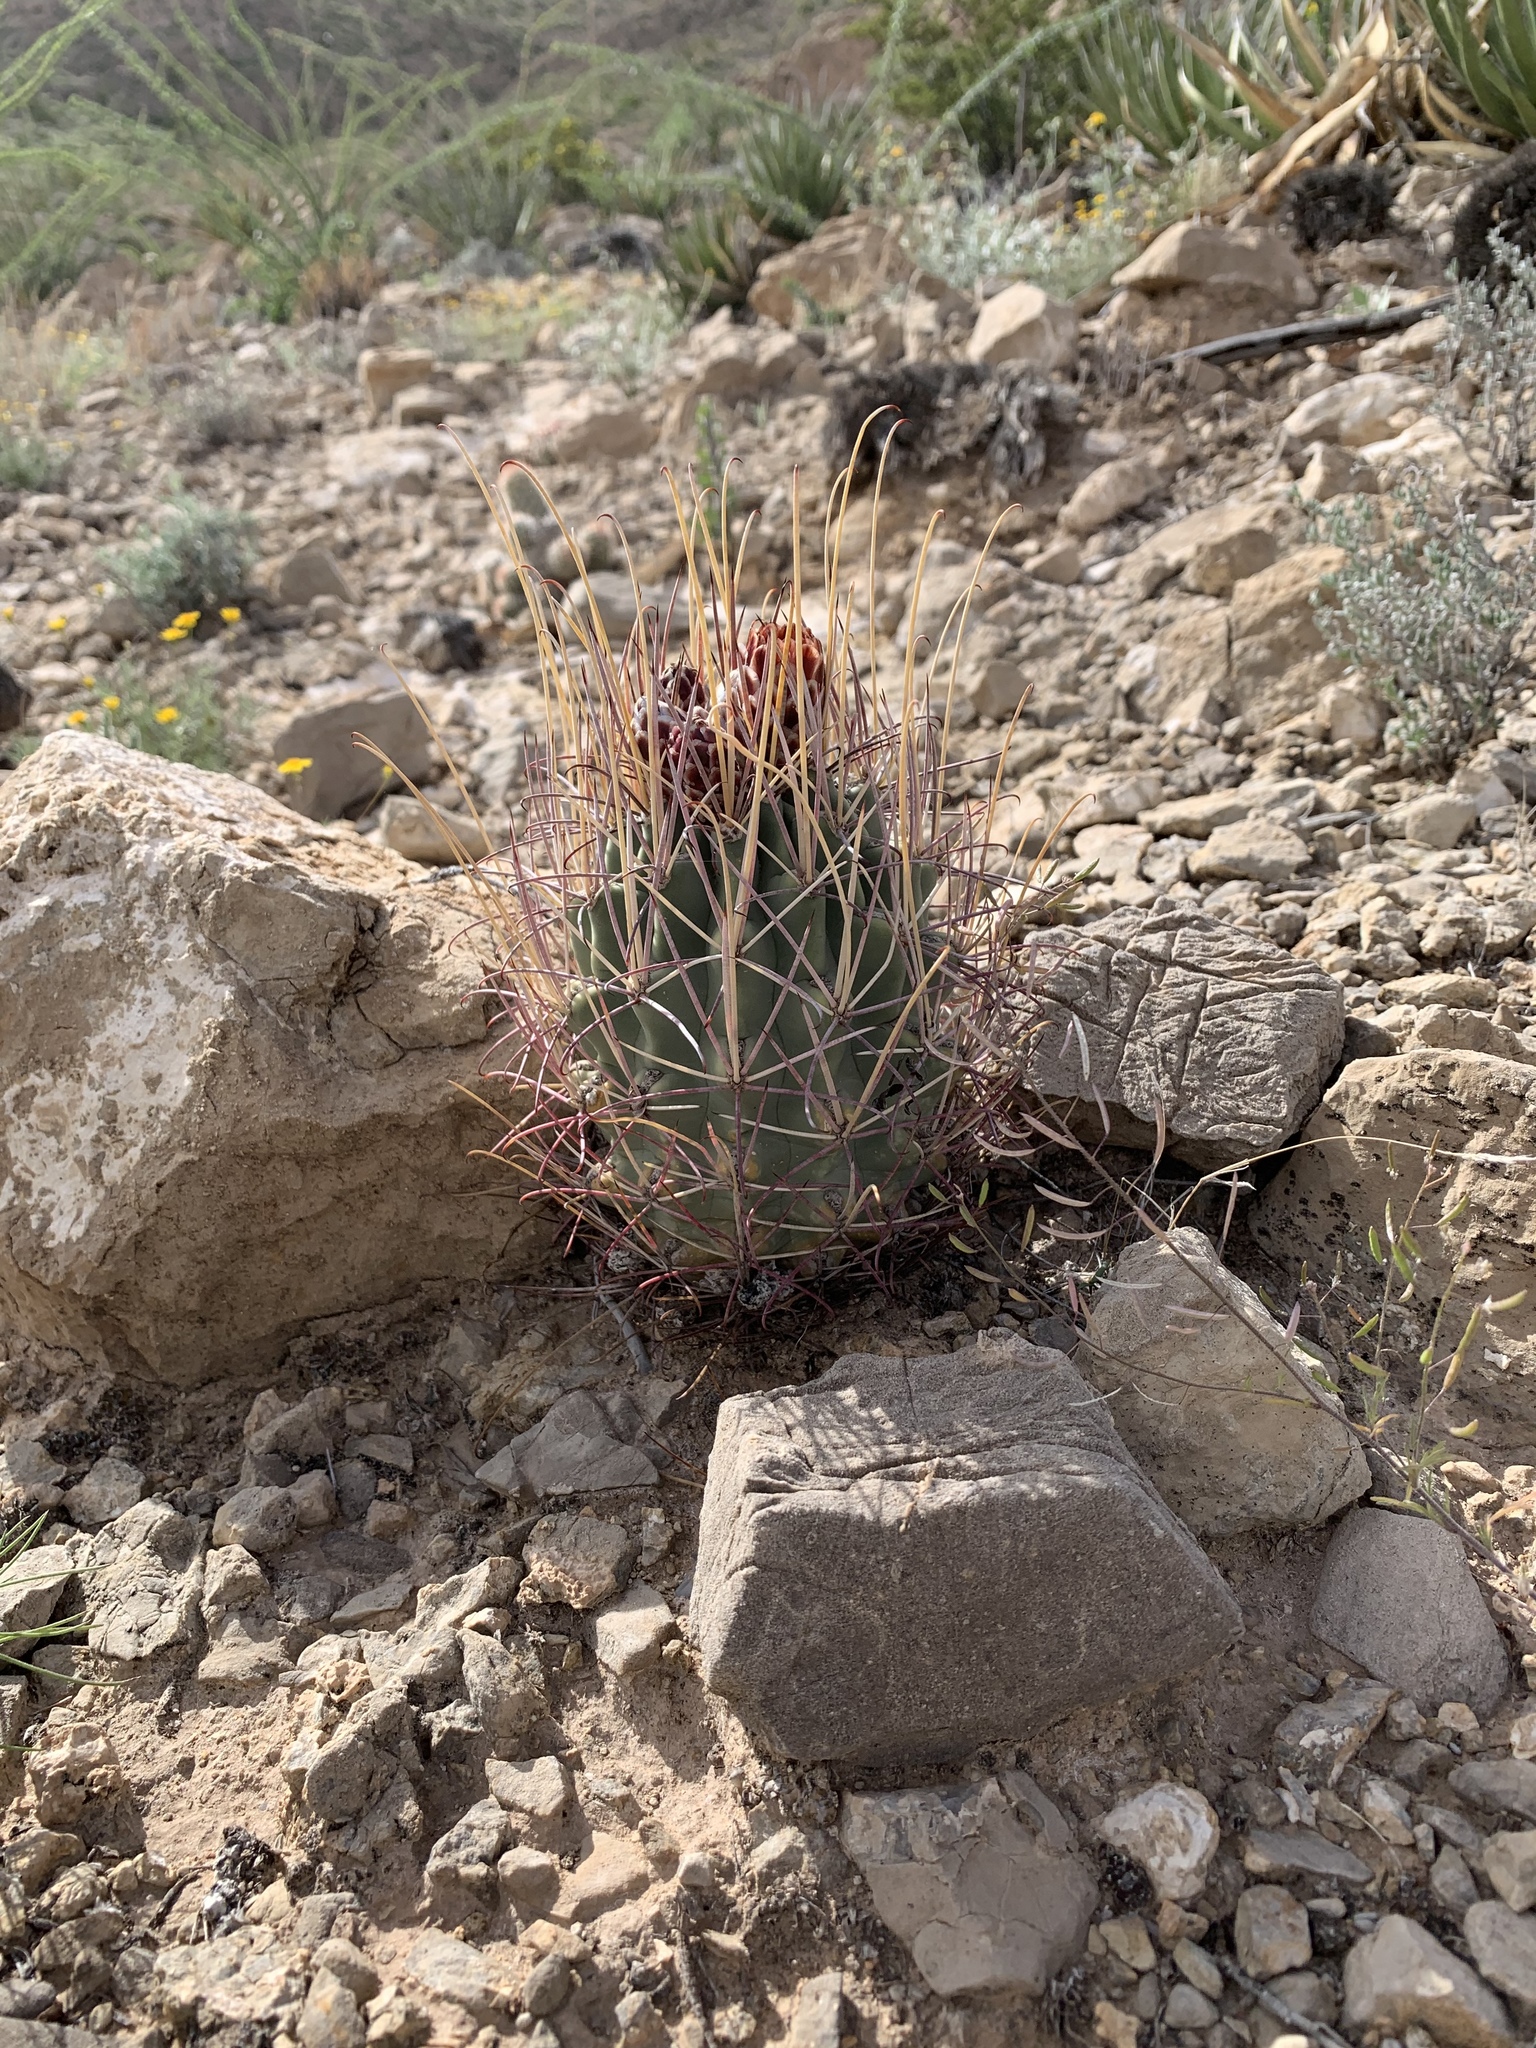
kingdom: Plantae
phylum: Tracheophyta
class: Magnoliopsida
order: Caryophyllales
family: Cactaceae
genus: Ferocactus
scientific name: Ferocactus uncinatus
